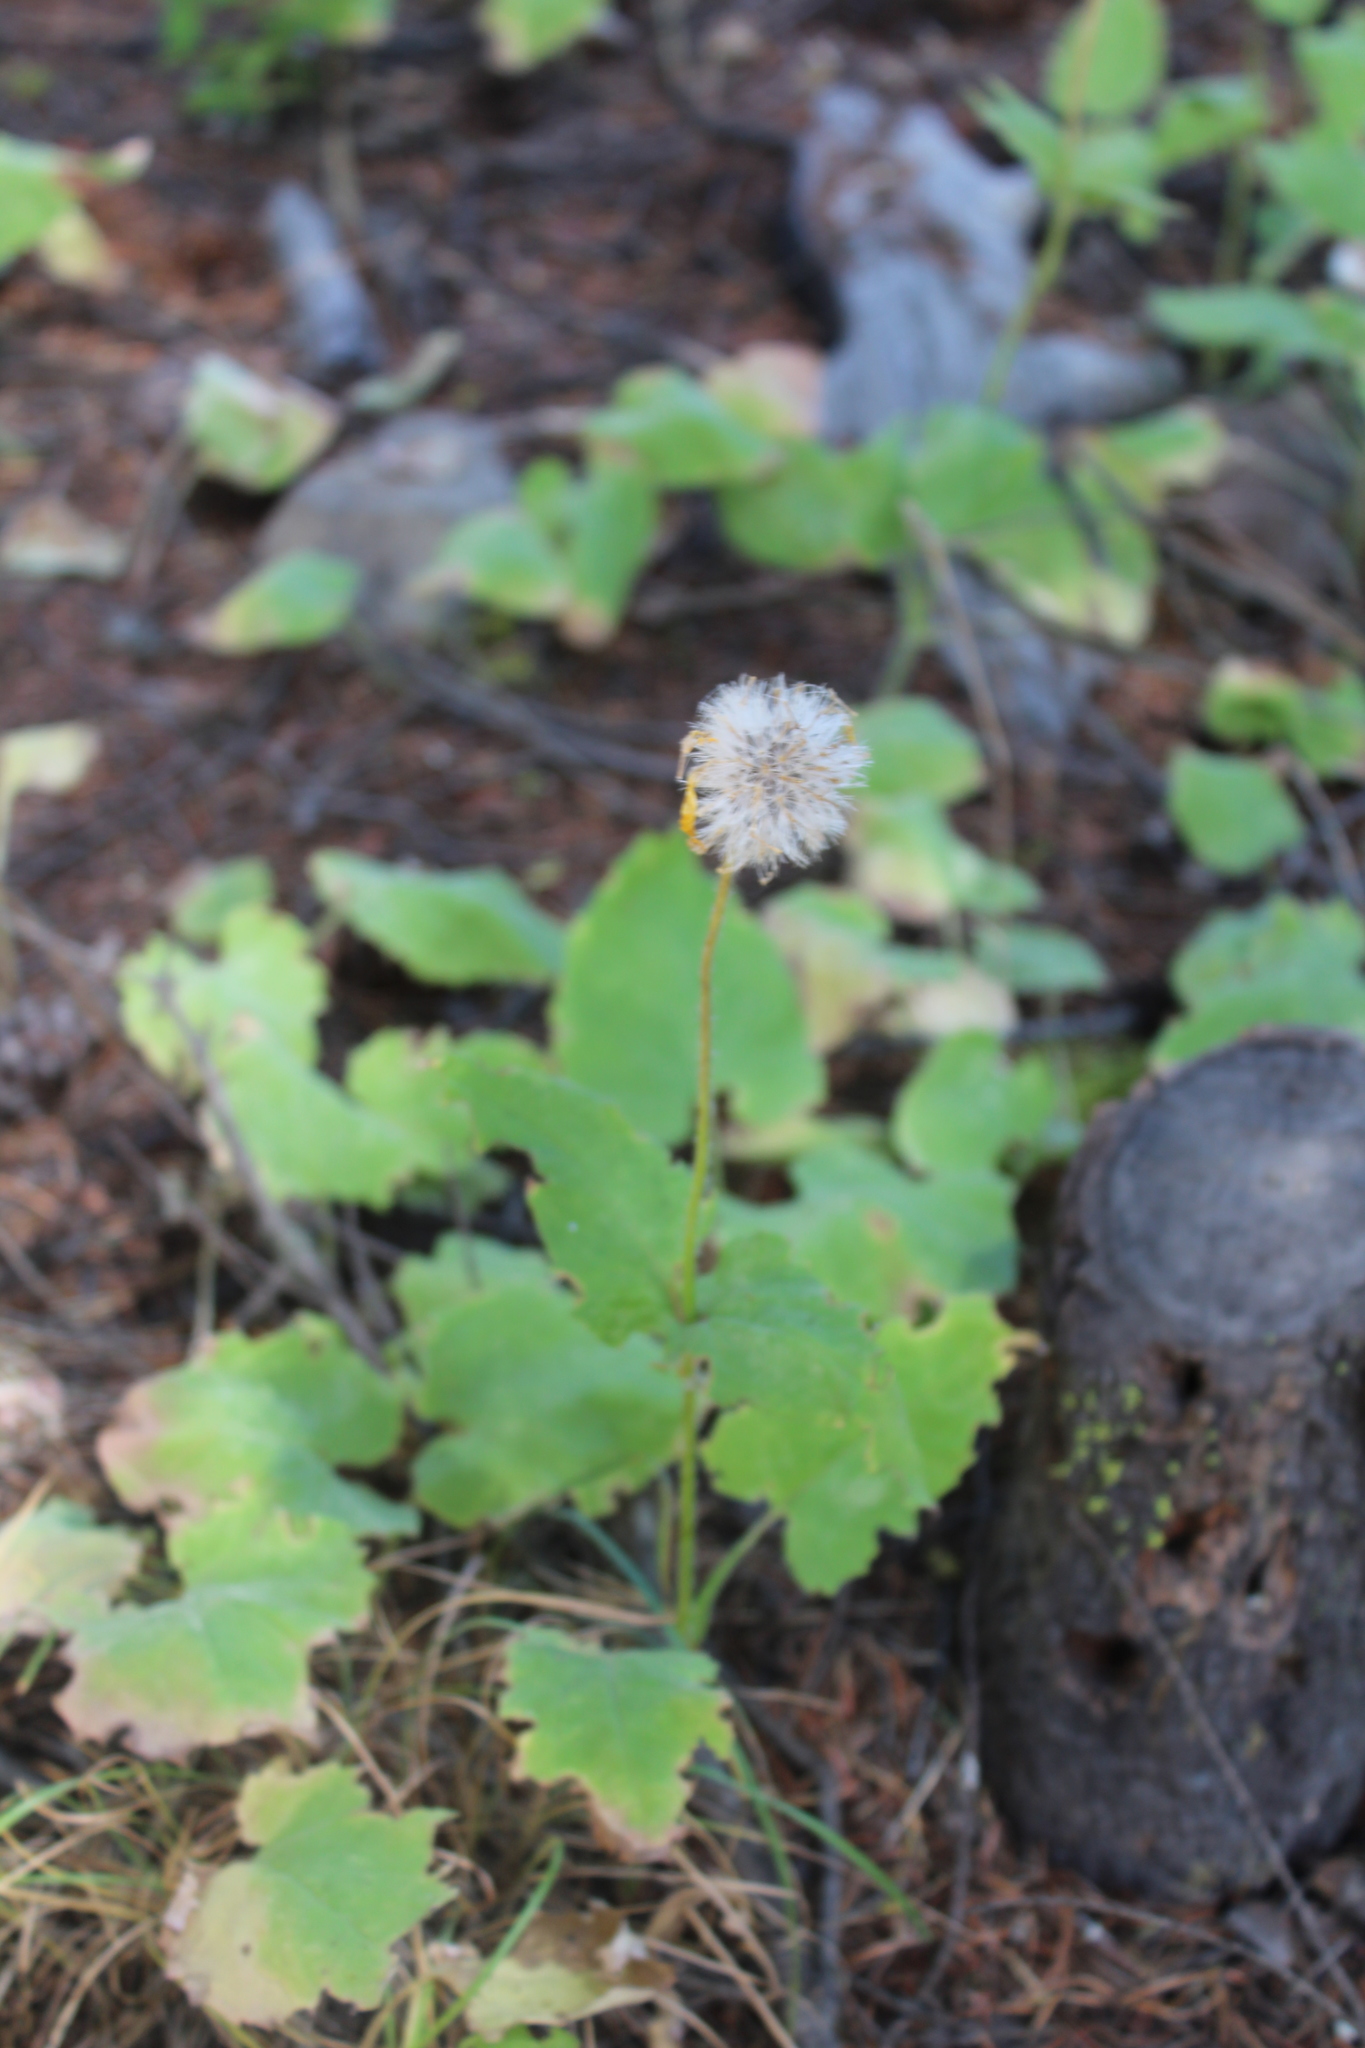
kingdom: Plantae
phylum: Tracheophyta
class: Magnoliopsida
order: Asterales
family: Asteraceae
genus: Arnica
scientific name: Arnica cordifolia
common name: Heart-leaf arnica
